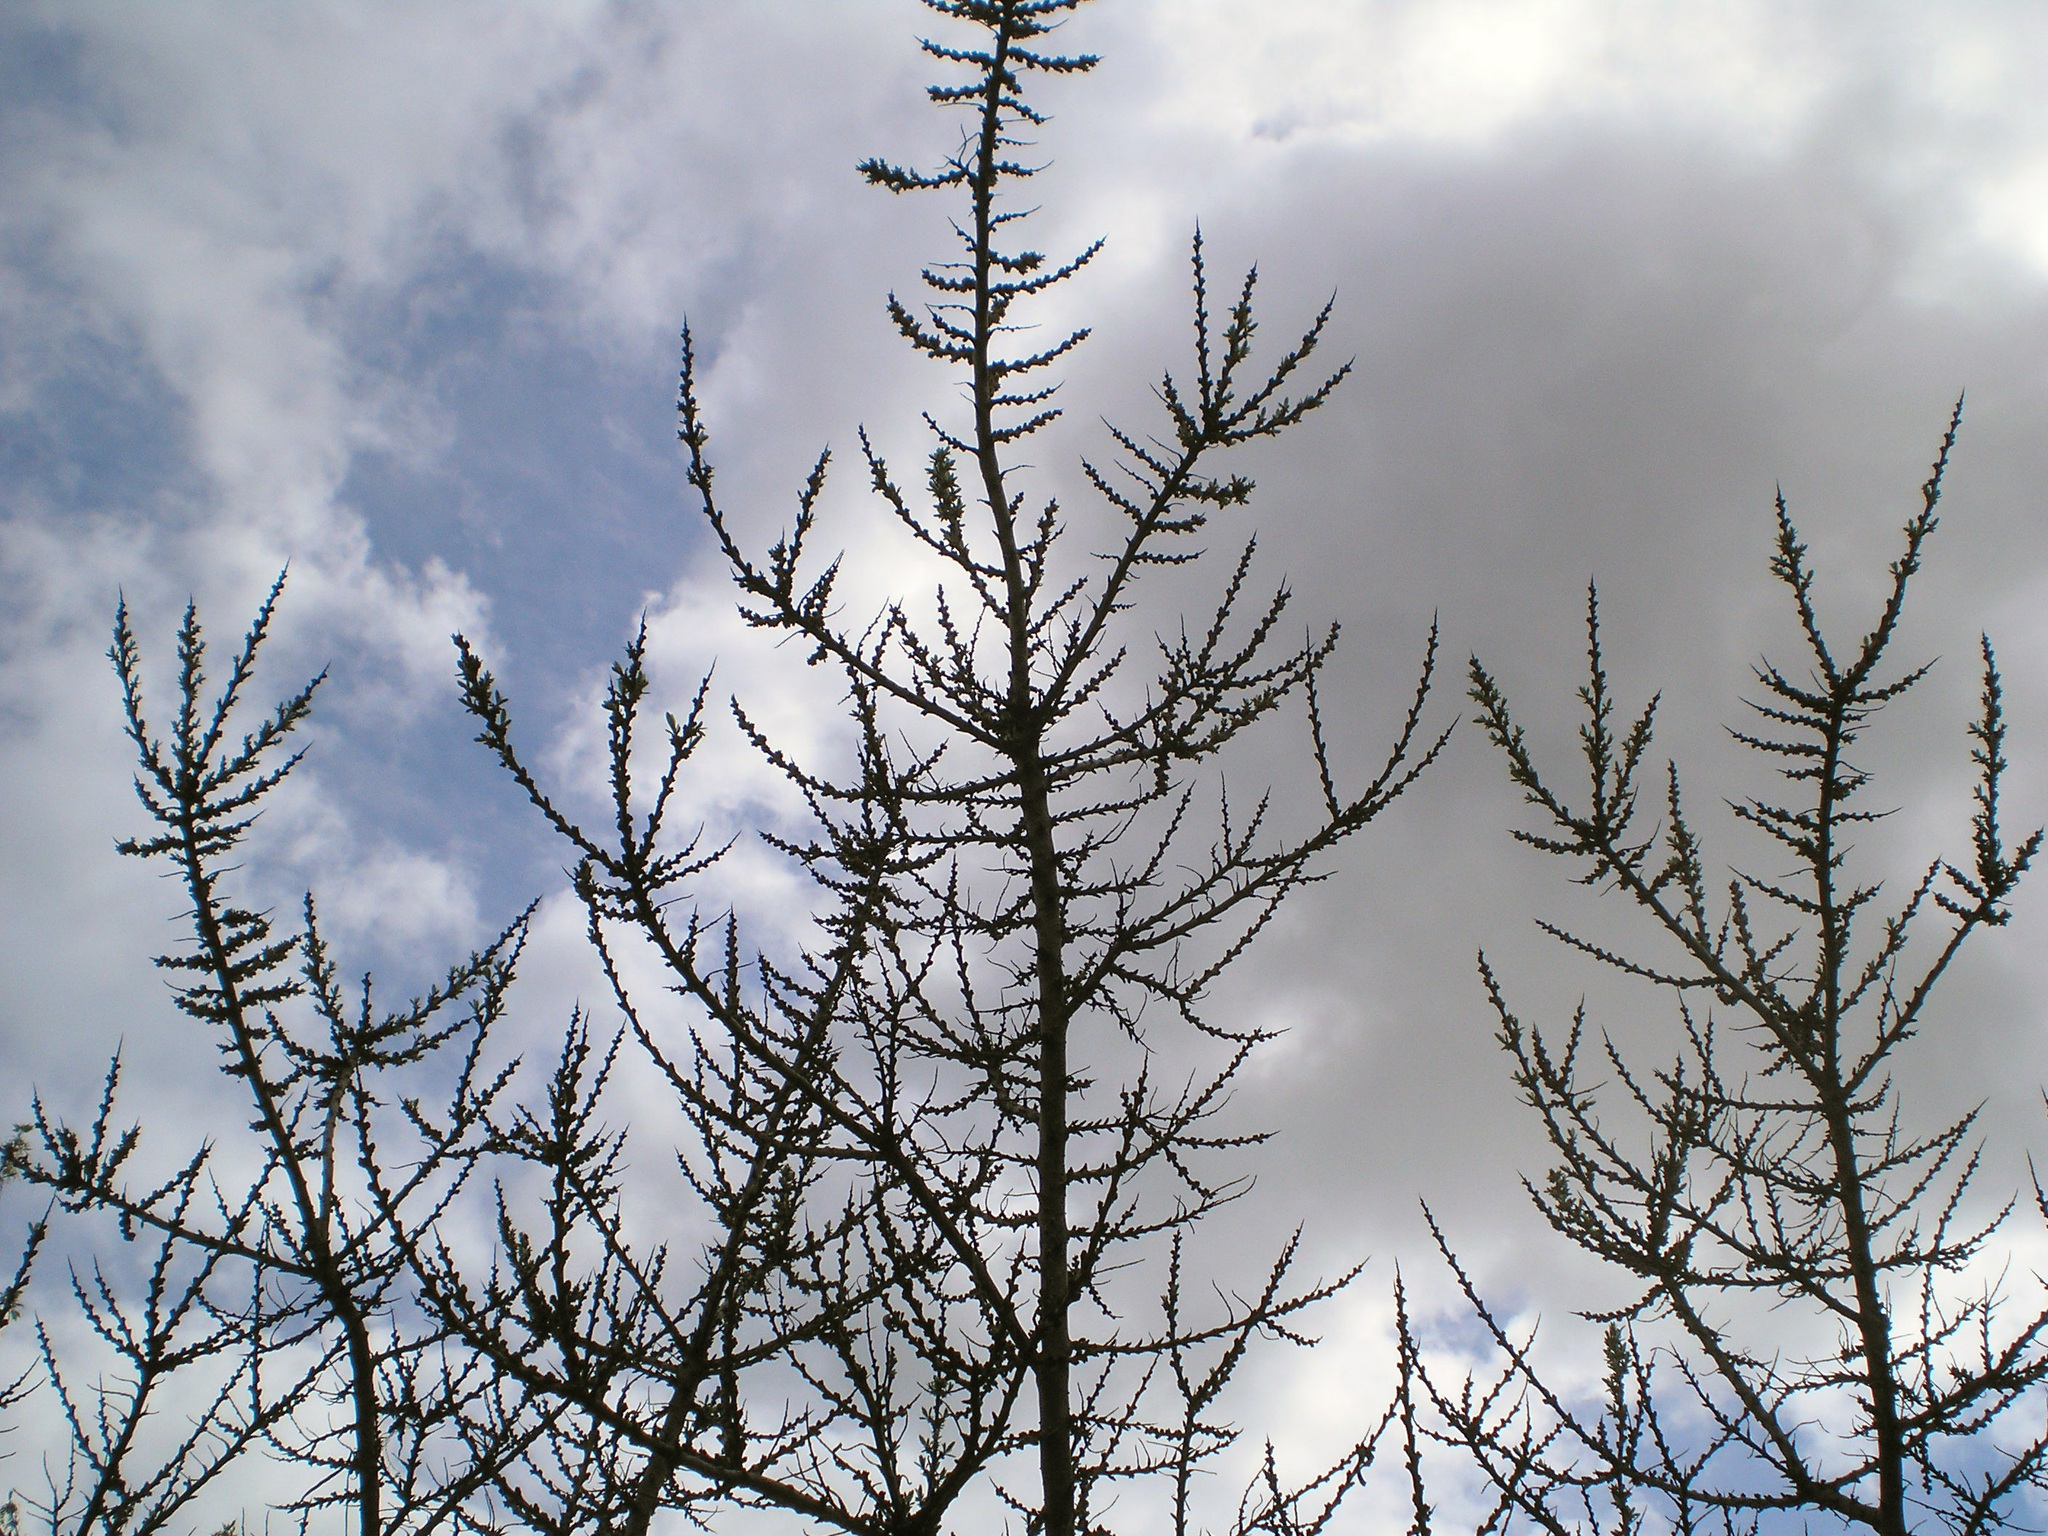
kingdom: Plantae
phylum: Tracheophyta
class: Magnoliopsida
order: Rosales
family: Elaeagnaceae
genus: Hippophae
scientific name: Hippophae rhamnoides
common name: Sea-buckthorn
